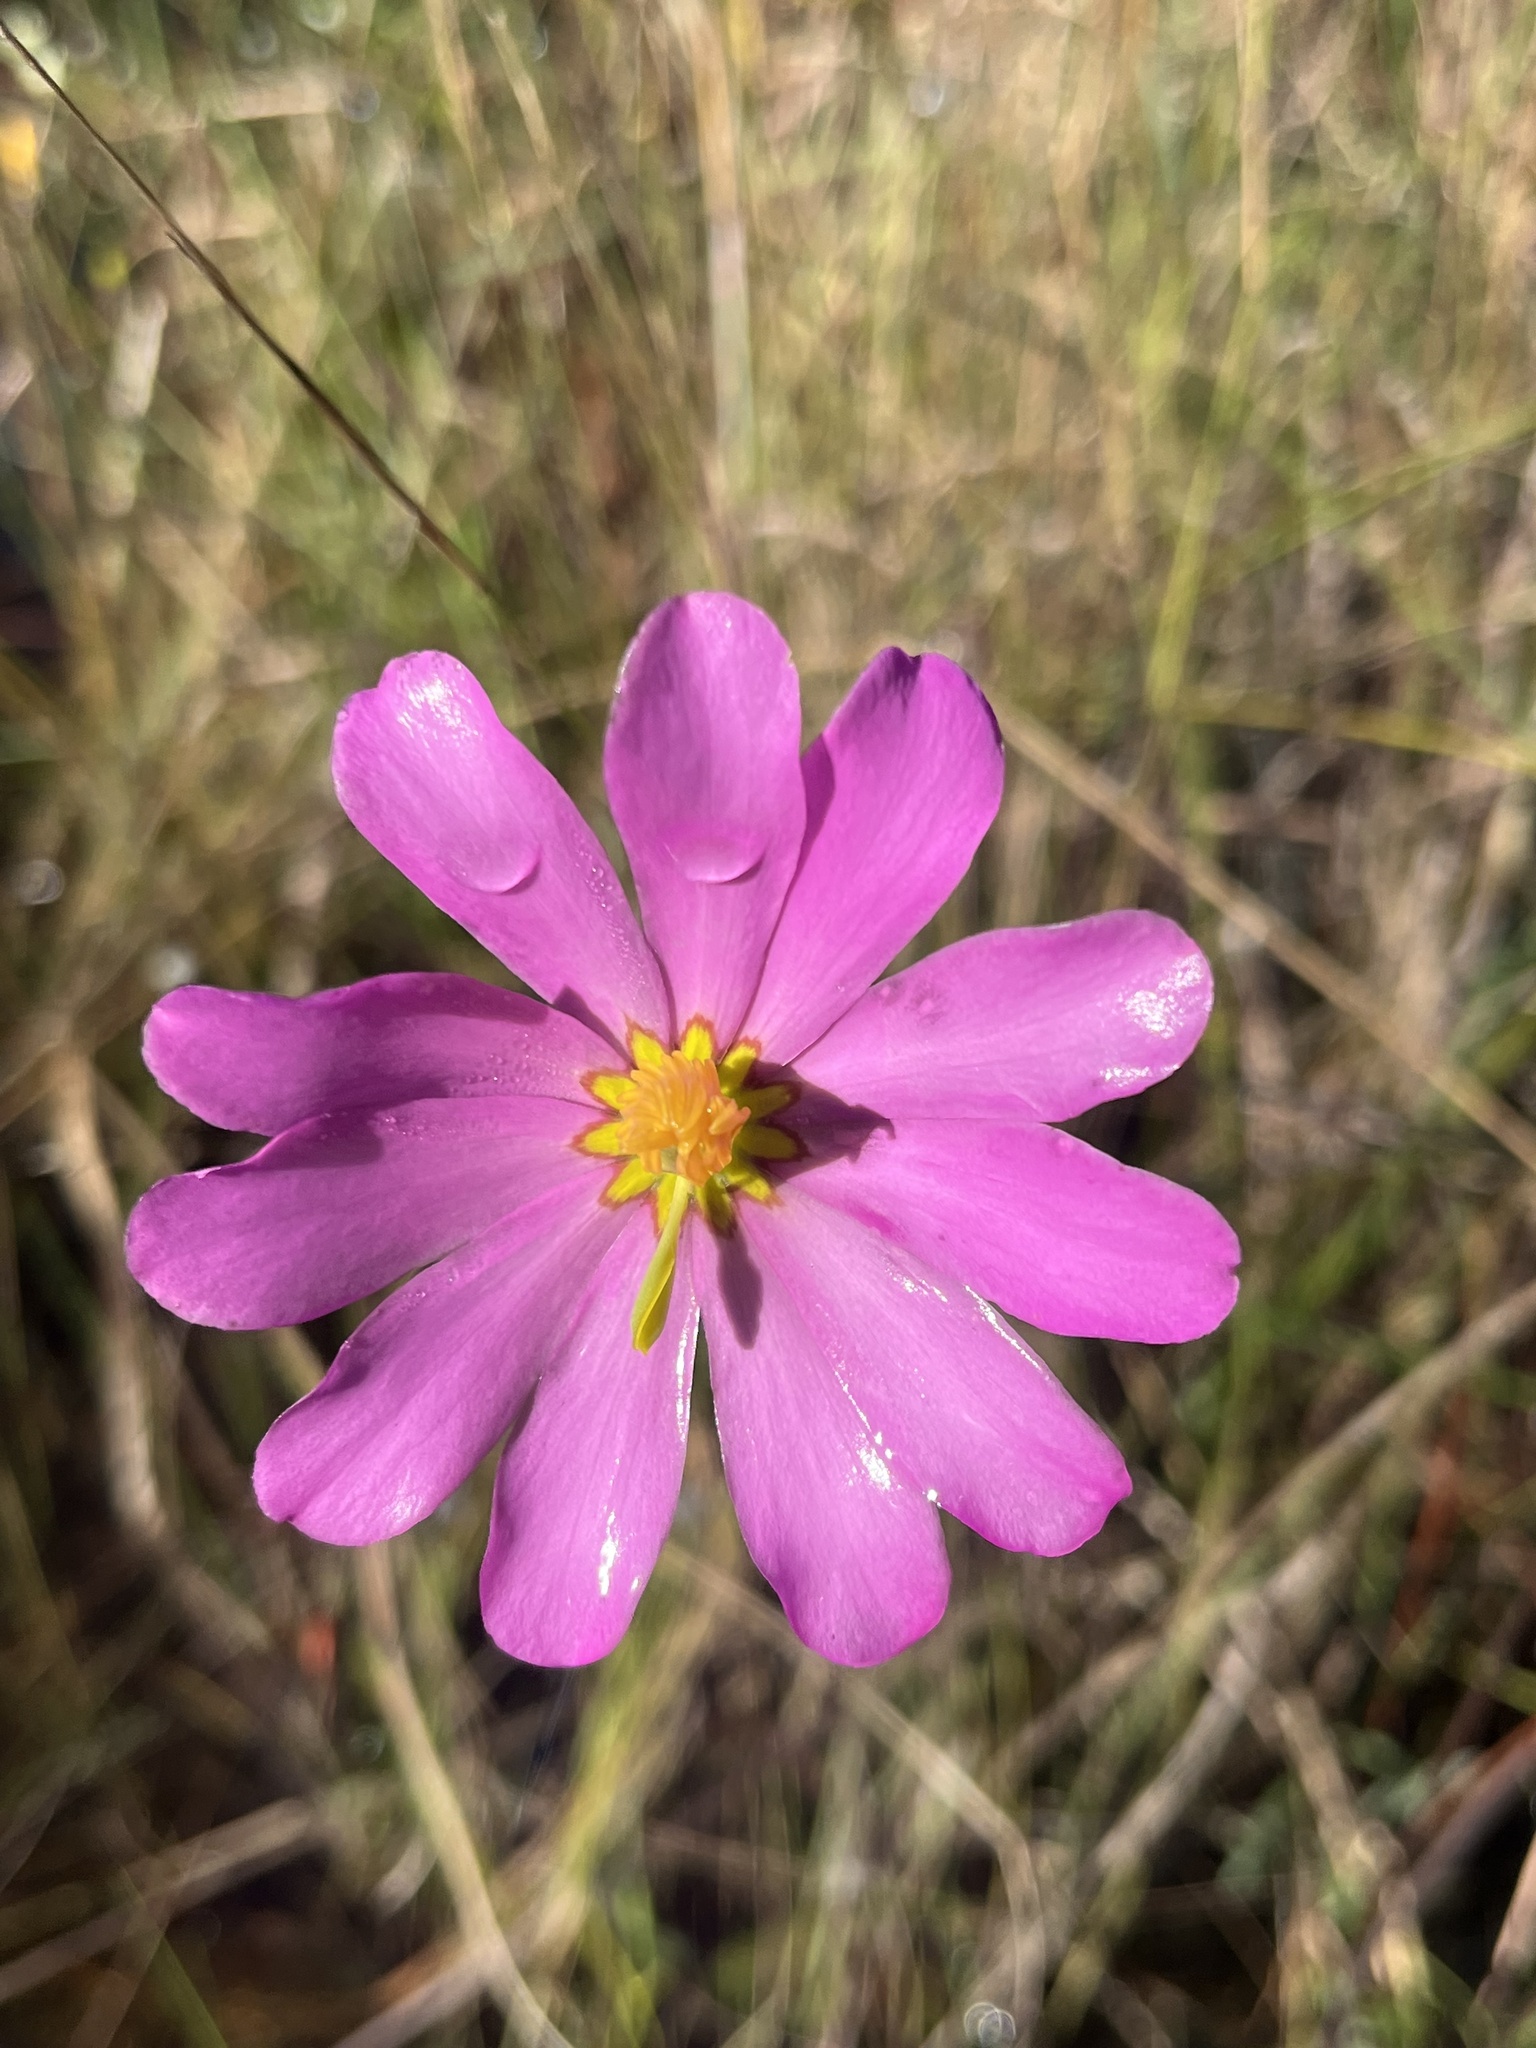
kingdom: Plantae
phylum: Tracheophyta
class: Magnoliopsida
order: Gentianales
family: Gentianaceae
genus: Sabatia
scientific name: Sabatia decandra
